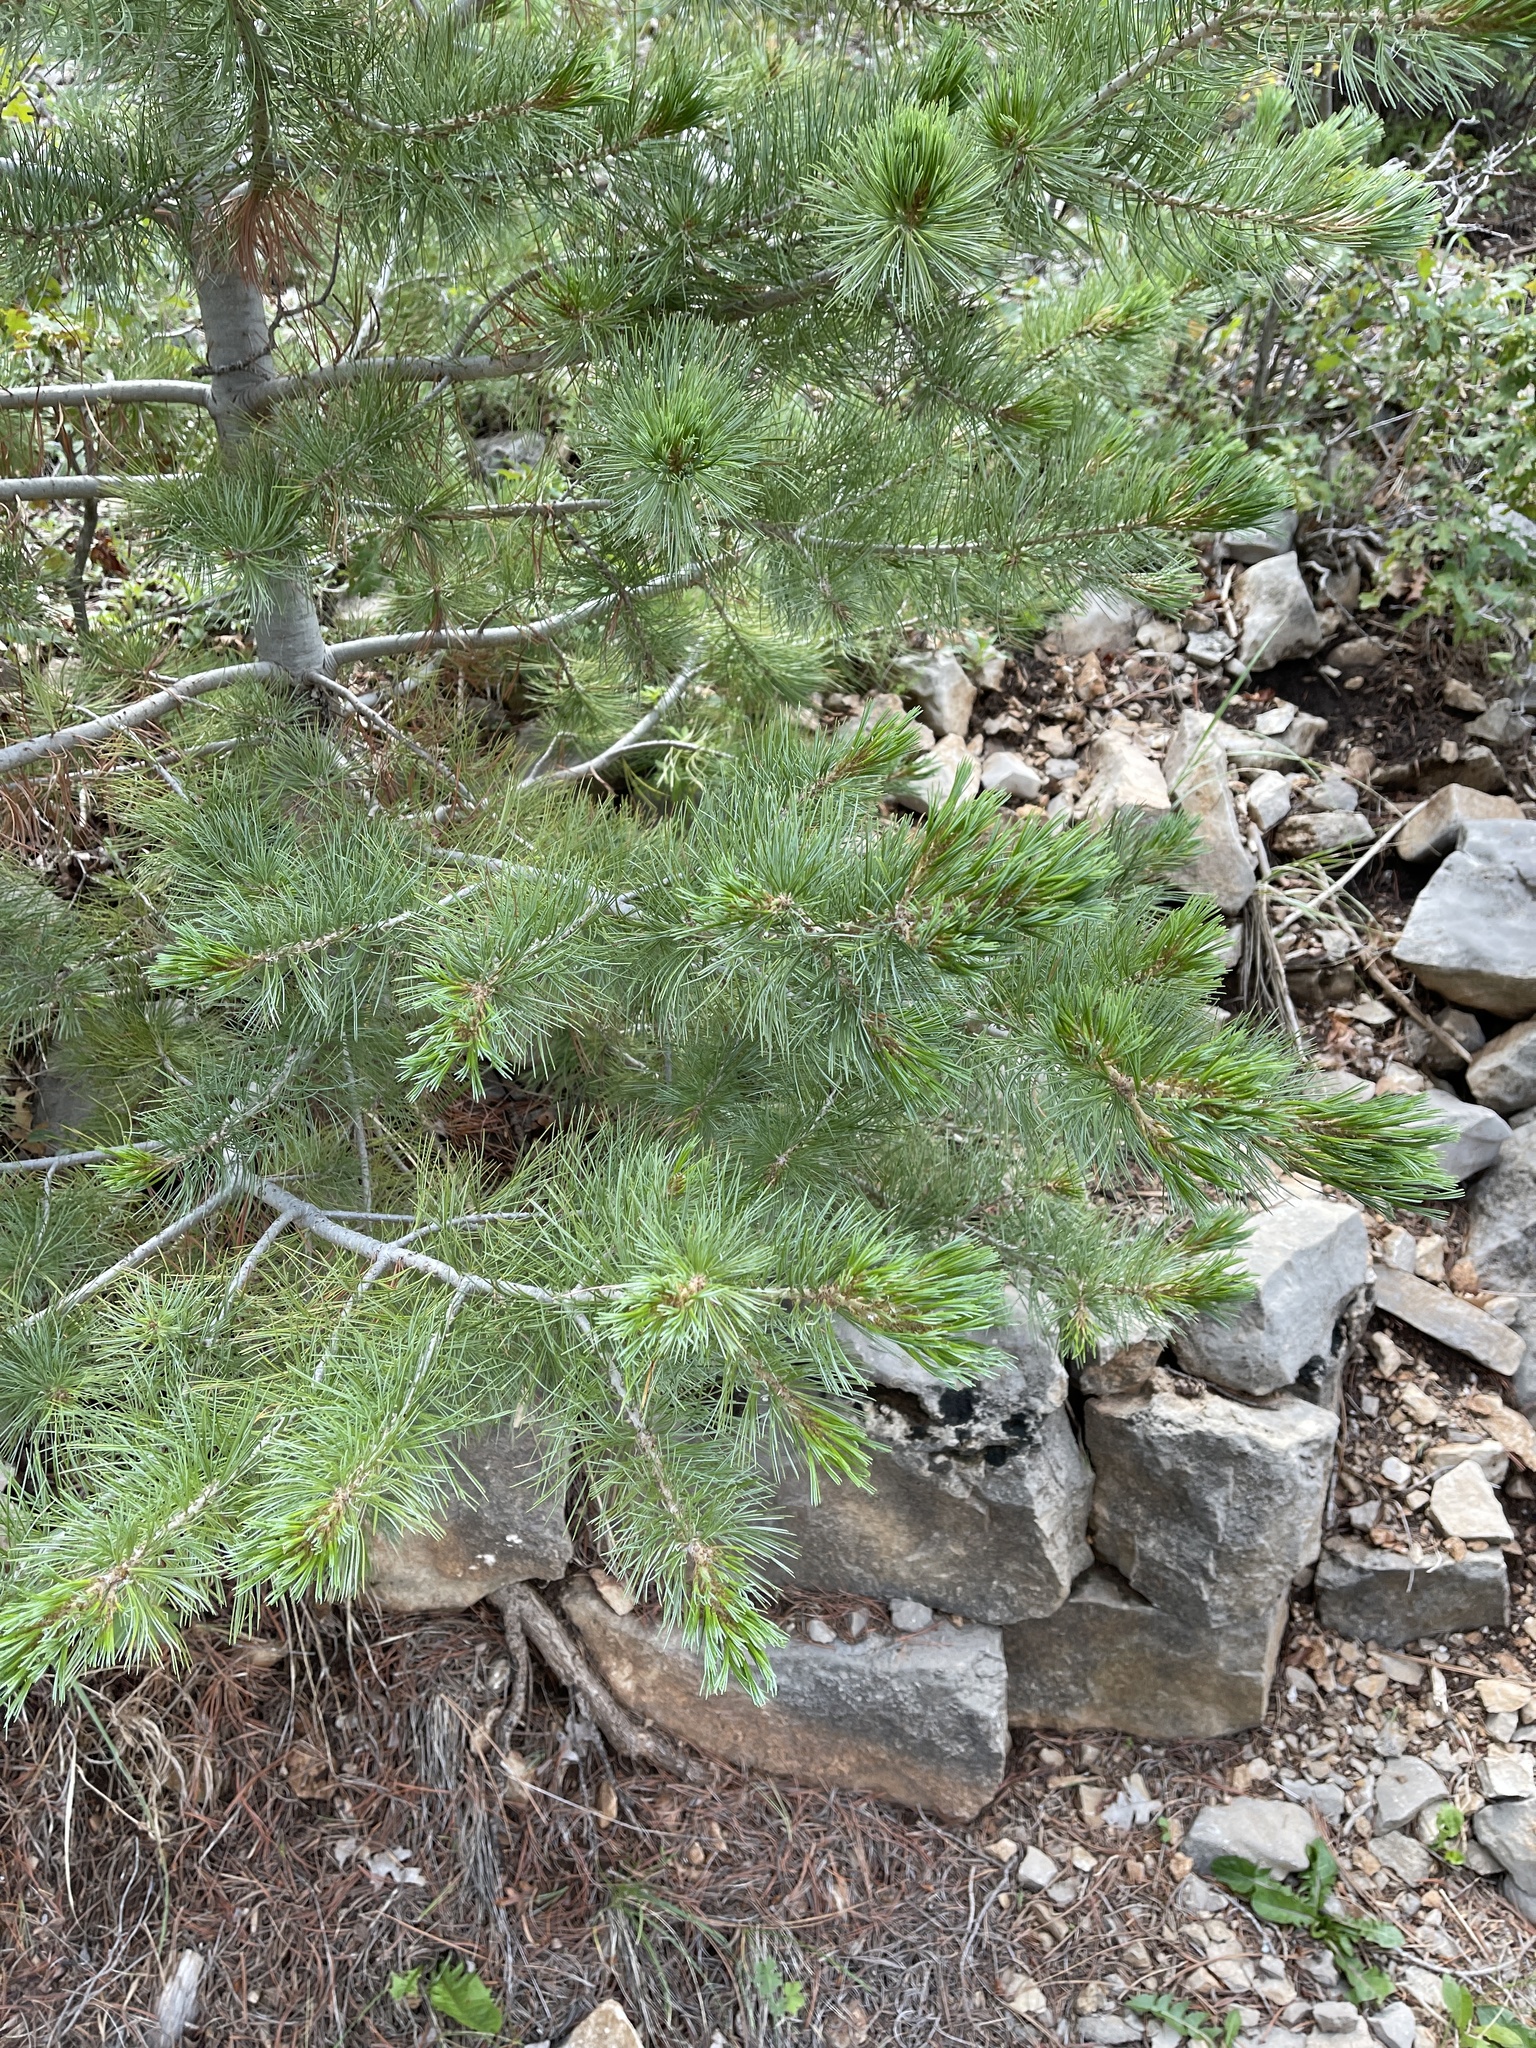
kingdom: Plantae
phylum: Tracheophyta
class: Pinopsida
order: Pinales
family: Pinaceae
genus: Pinus
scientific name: Pinus strobiformis
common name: Southwestern white pine
